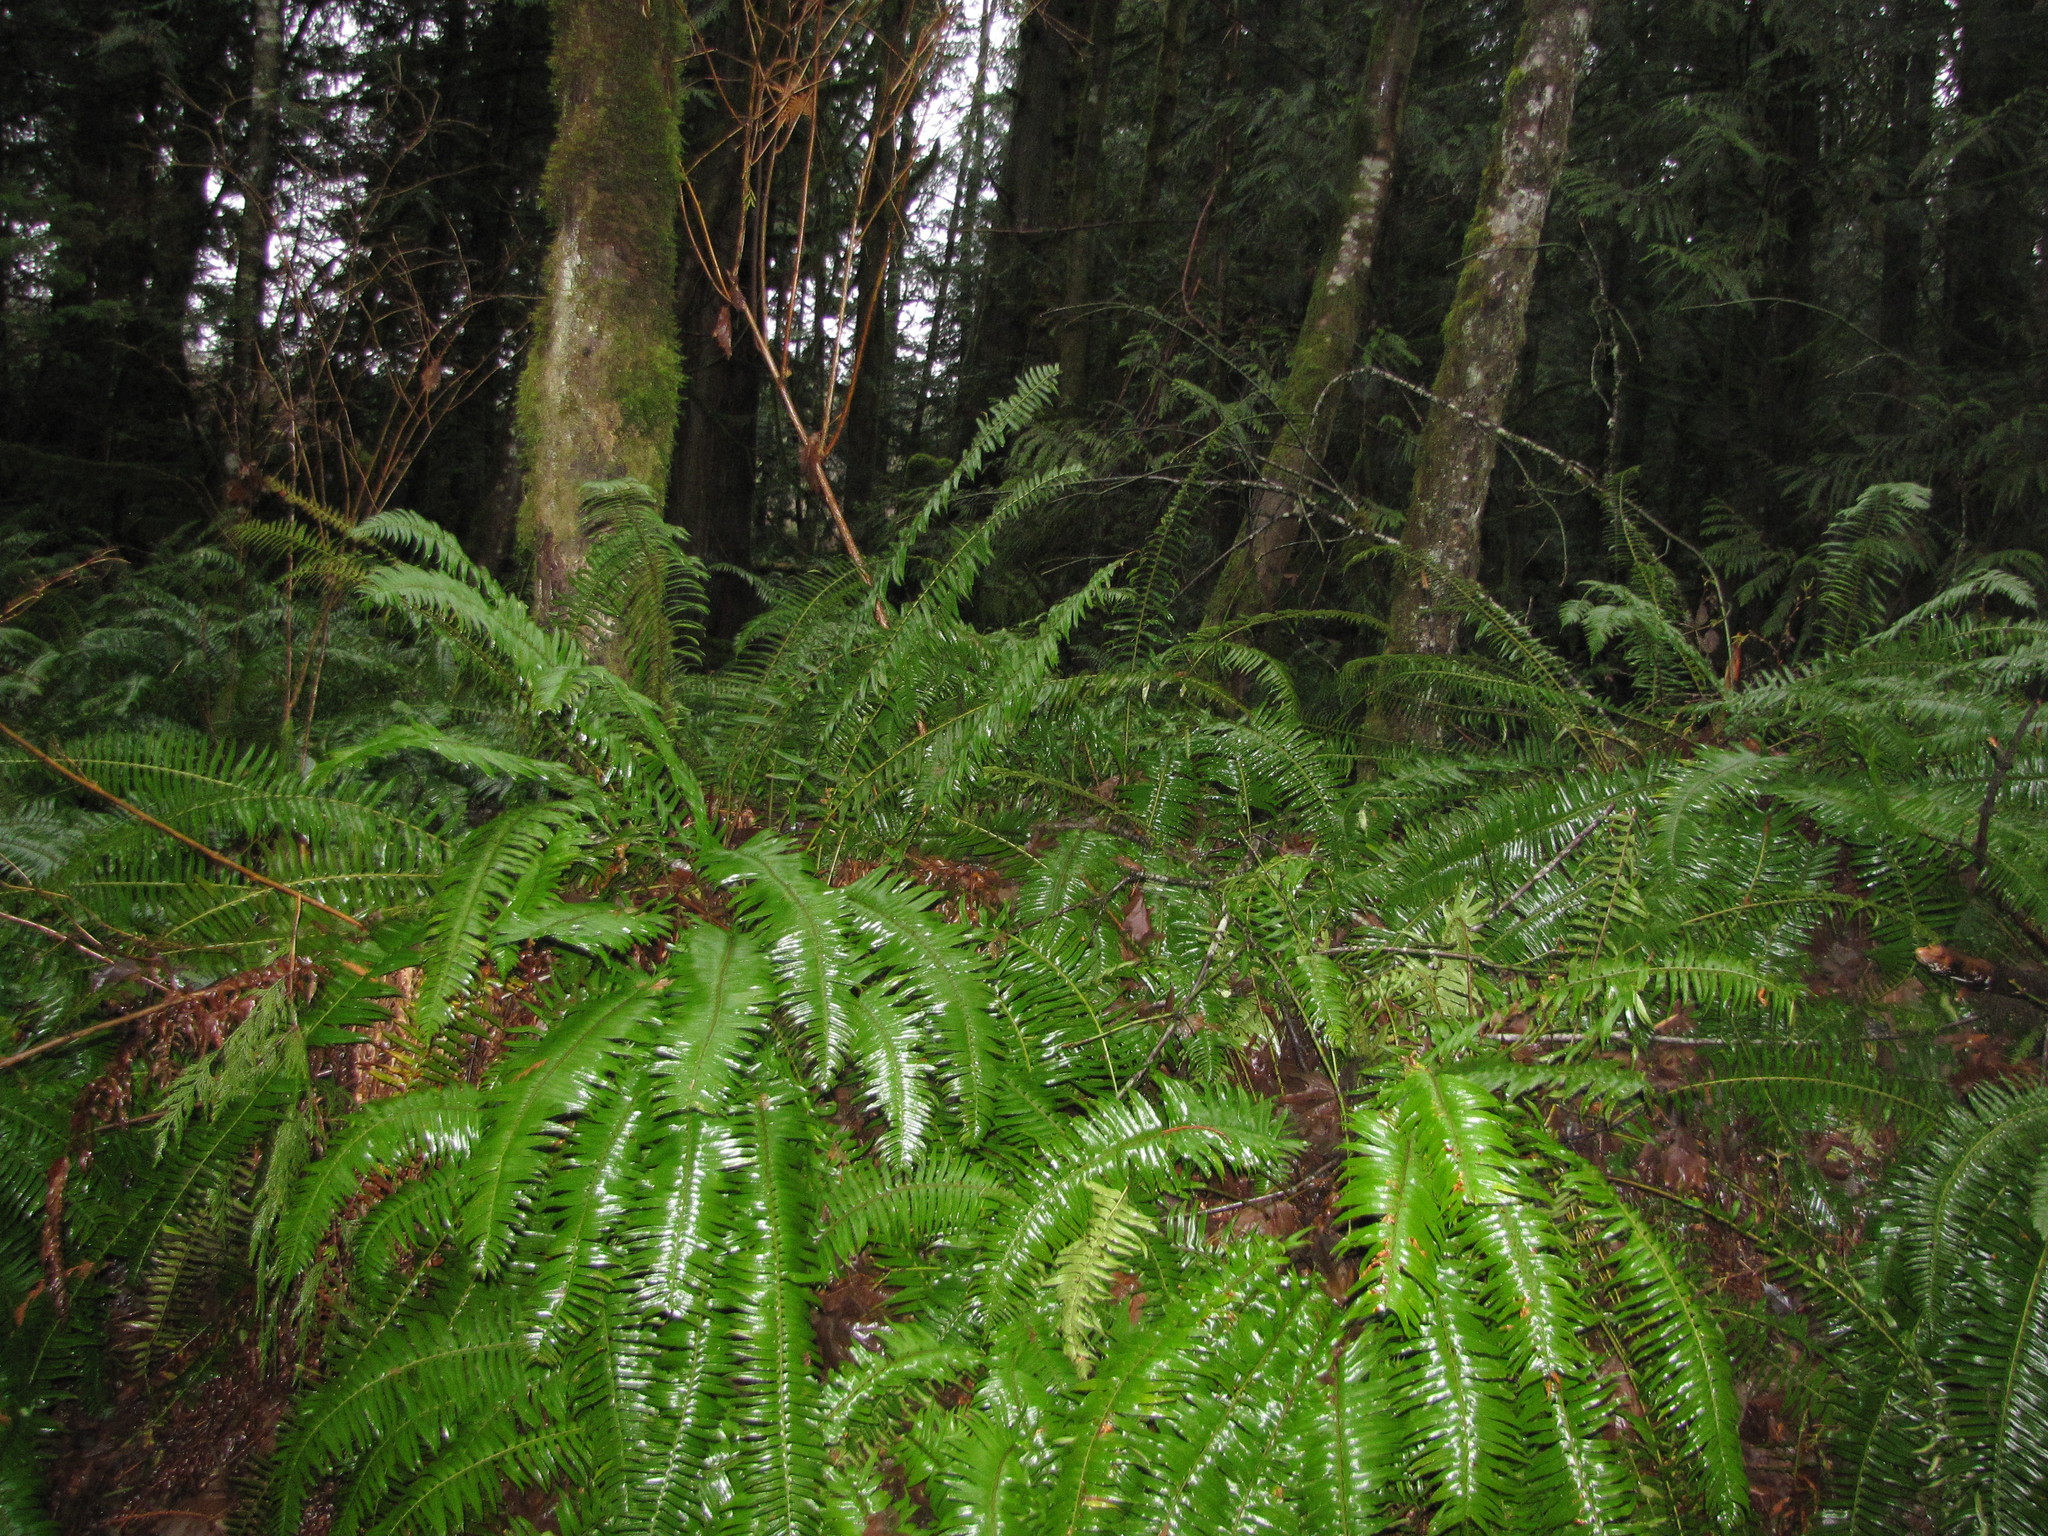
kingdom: Plantae
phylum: Tracheophyta
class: Polypodiopsida
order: Polypodiales
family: Dryopteridaceae
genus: Polystichum
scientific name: Polystichum munitum
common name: Western sword-fern
